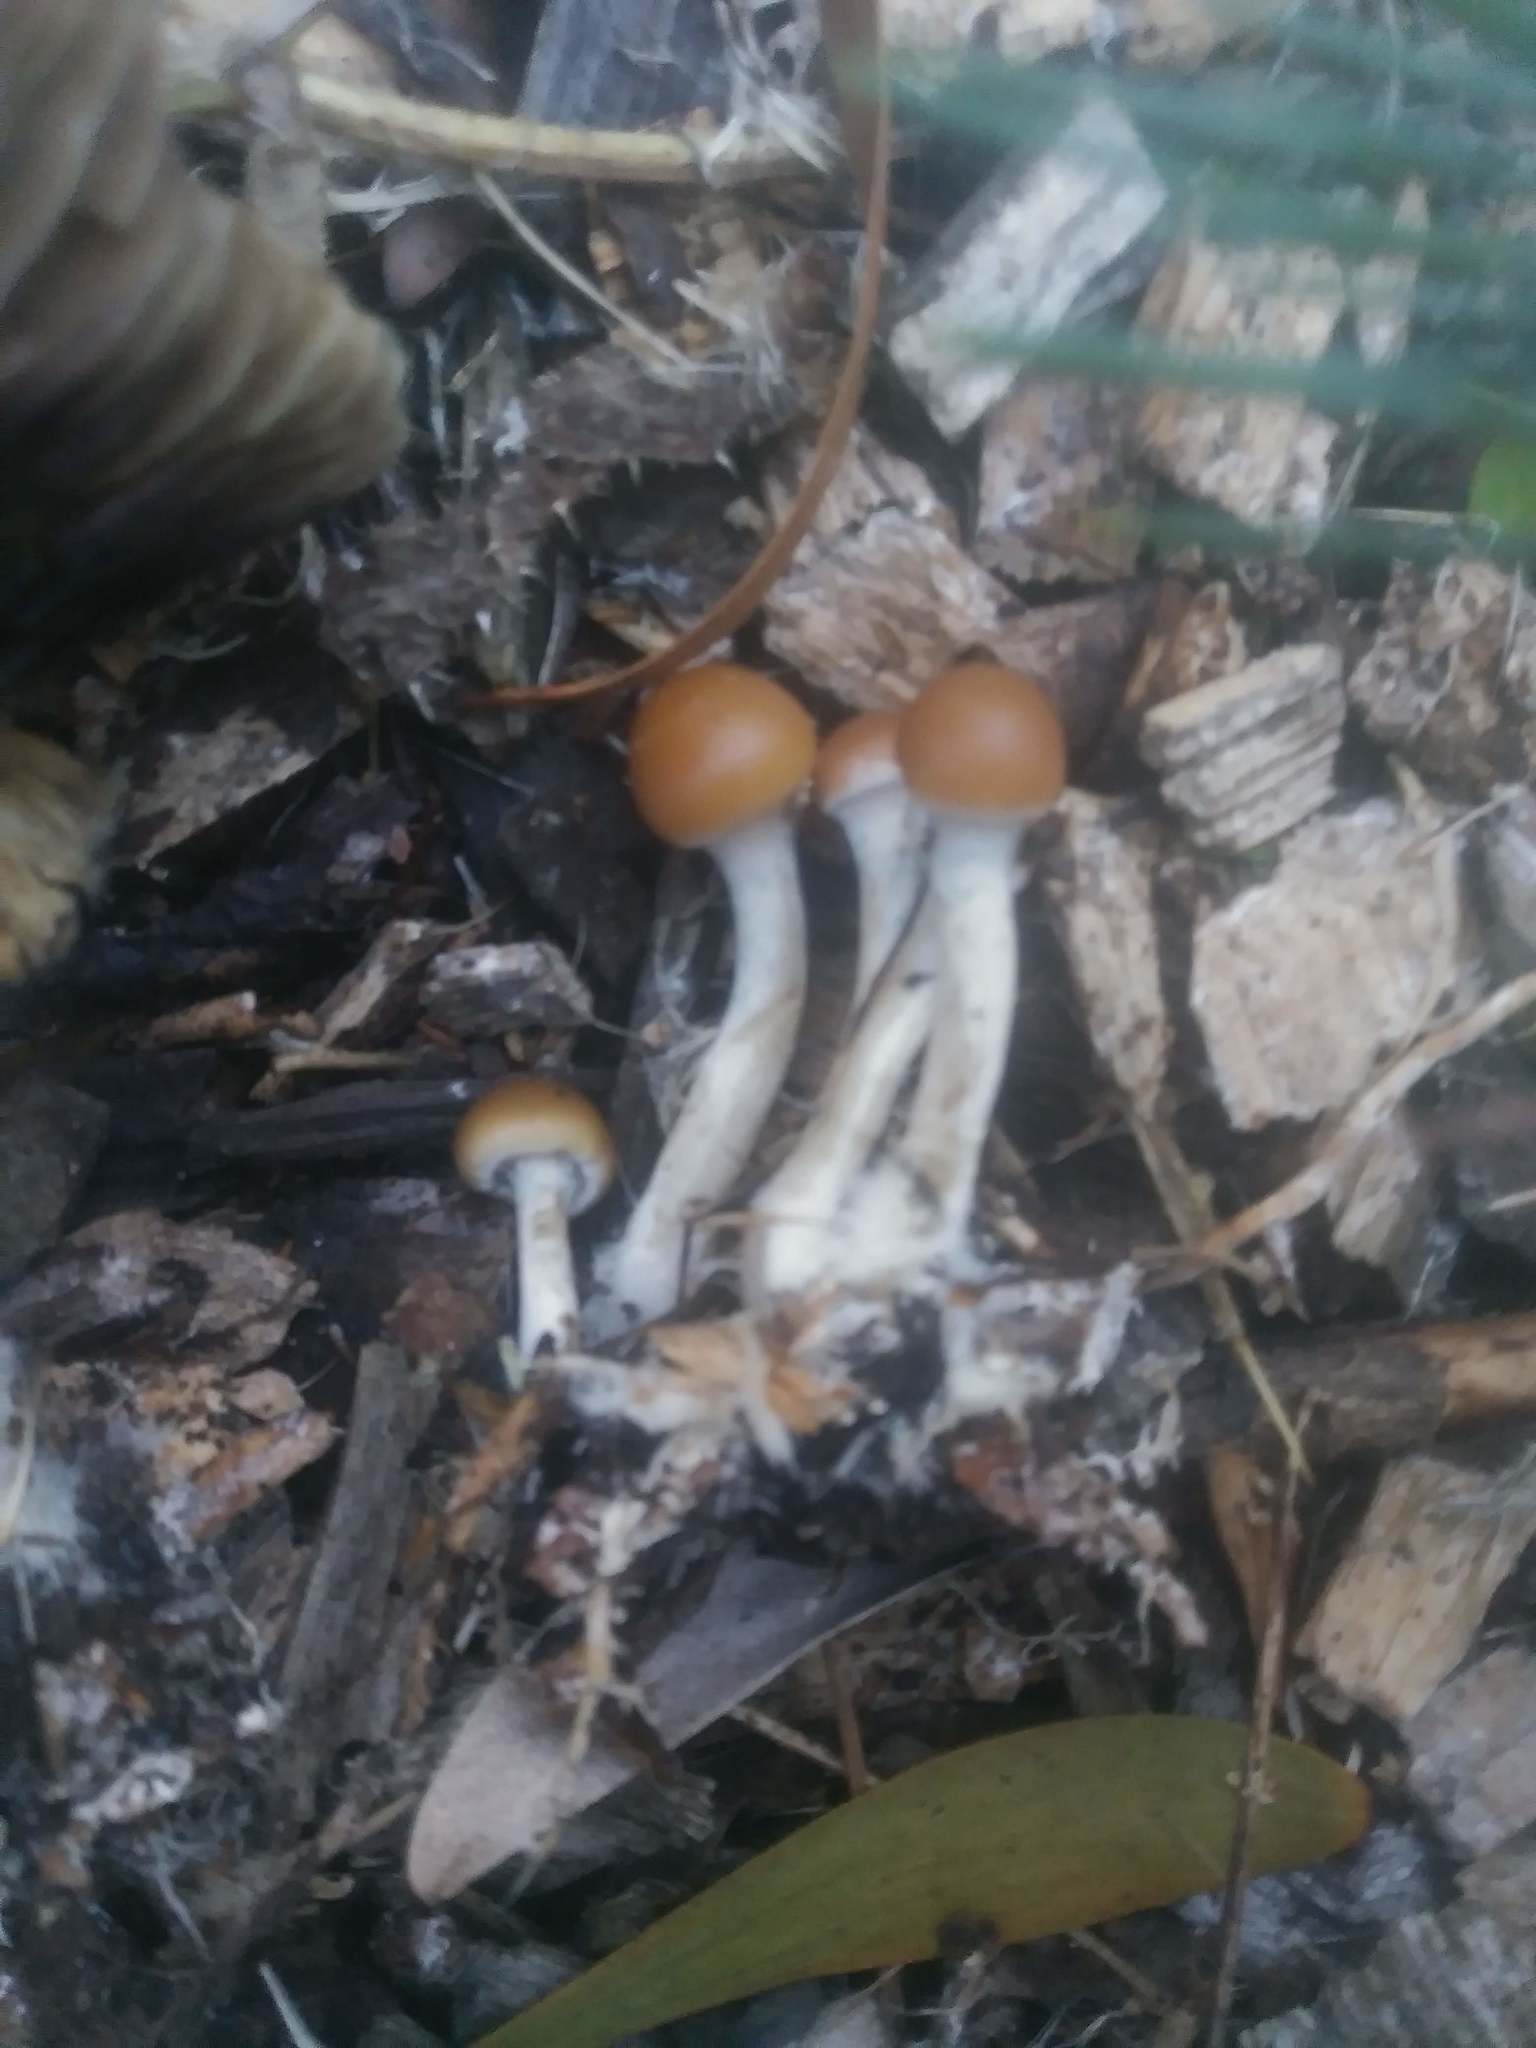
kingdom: Fungi
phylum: Basidiomycota
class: Agaricomycetes
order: Agaricales
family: Hymenogastraceae
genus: Psilocybe
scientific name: Psilocybe allenii
